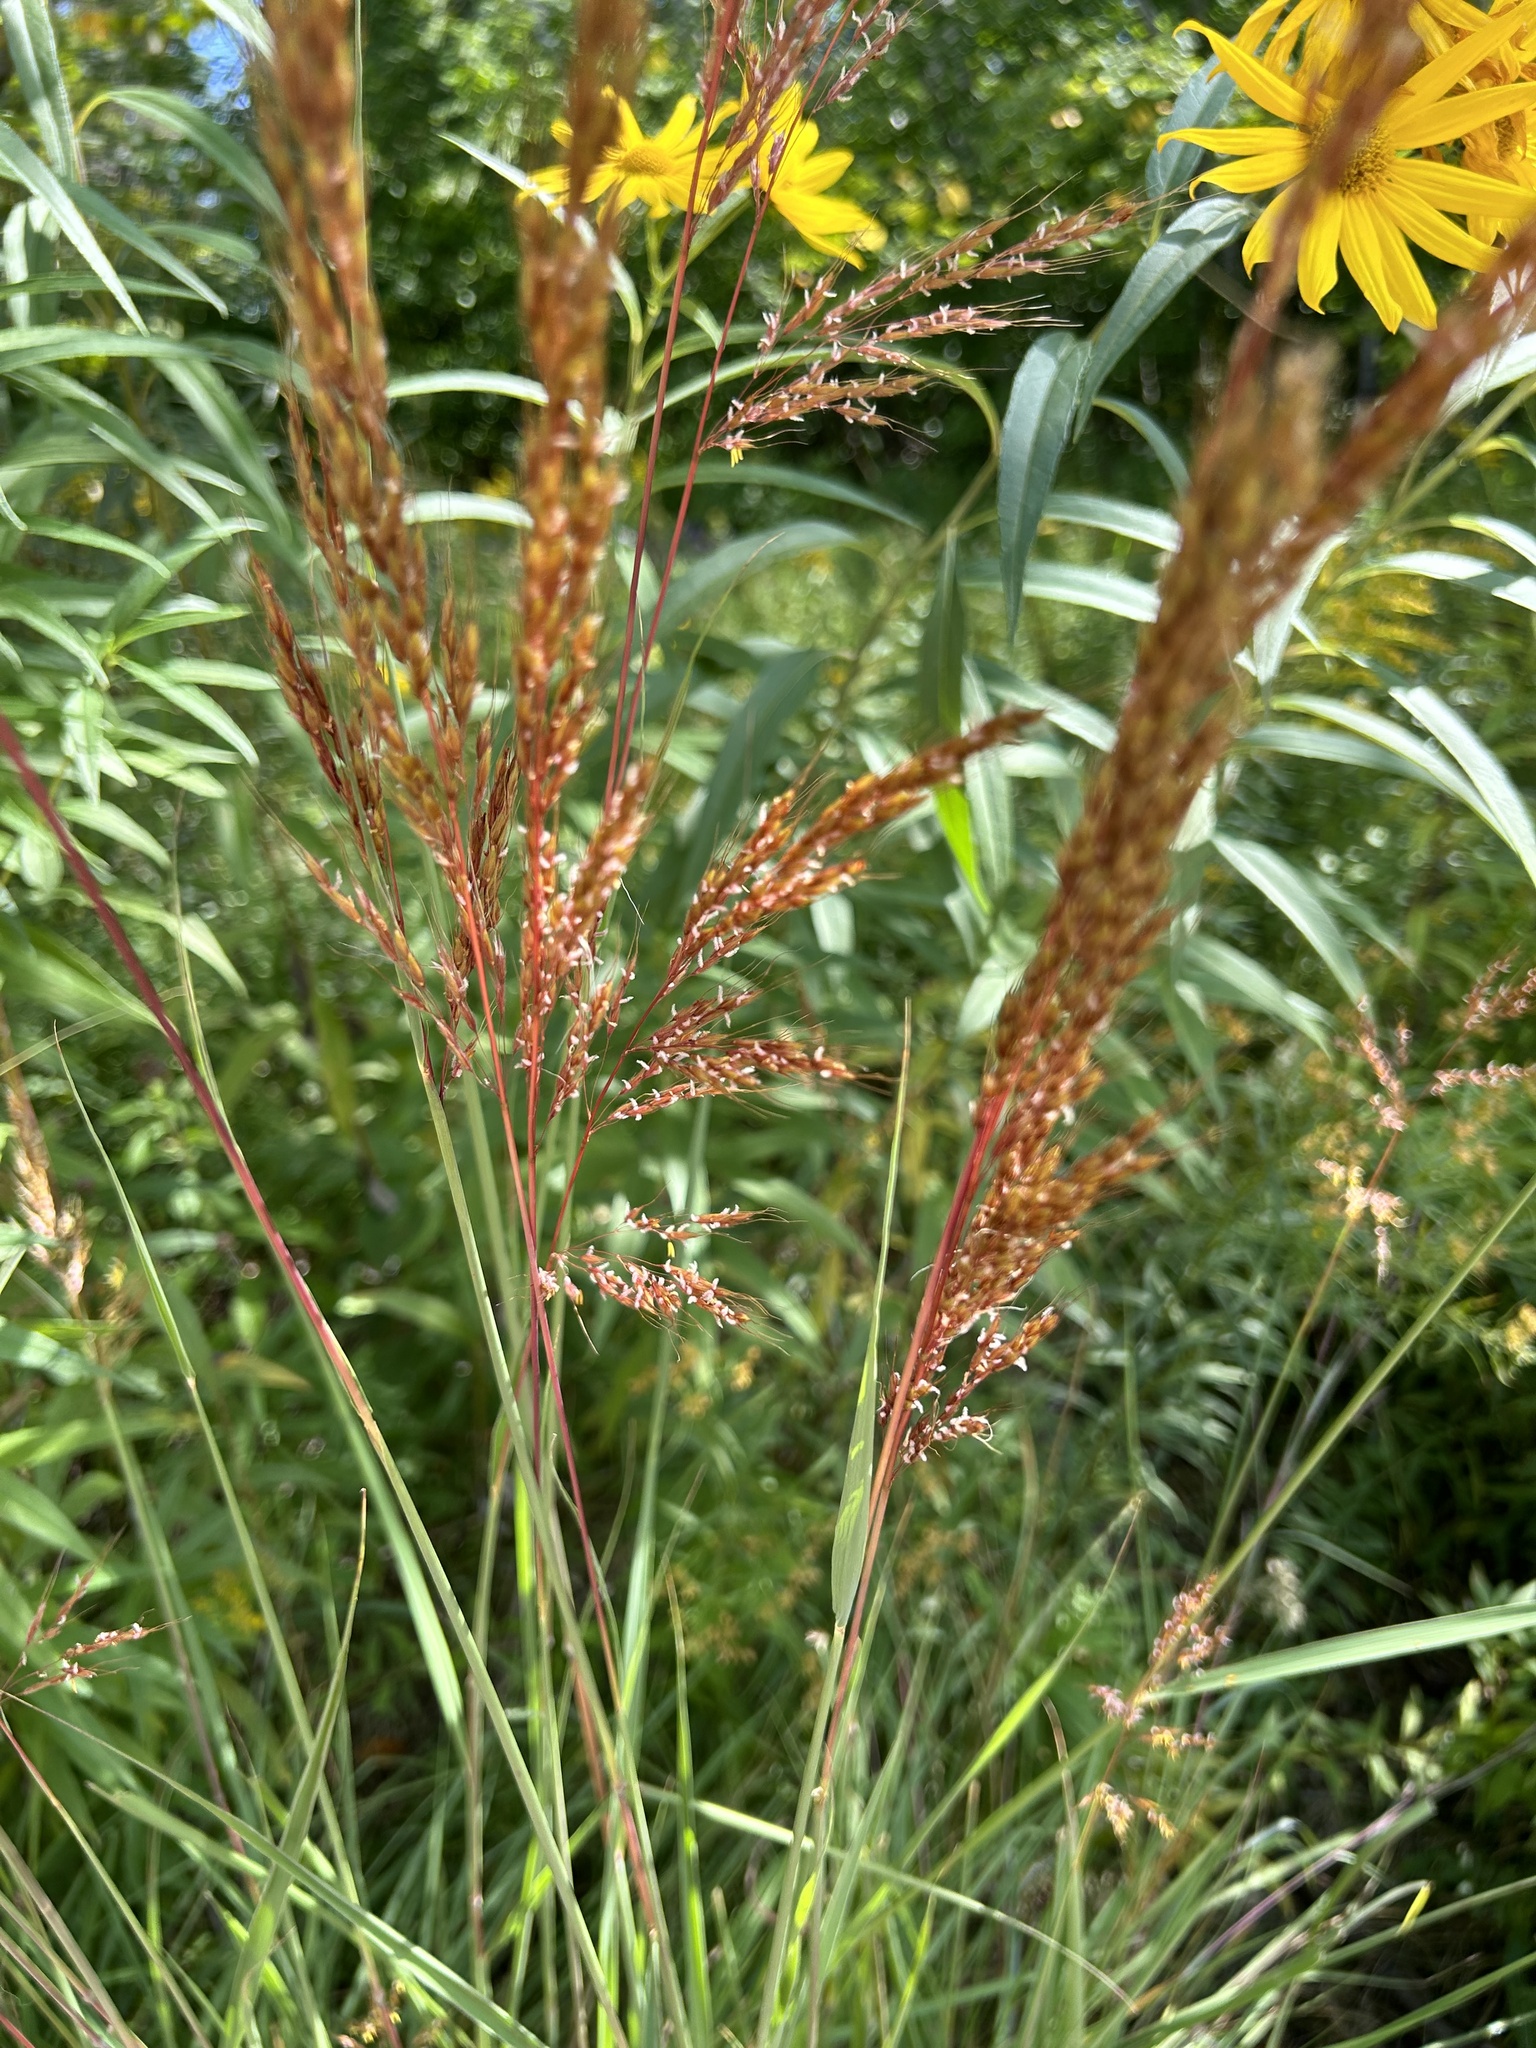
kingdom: Plantae
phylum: Tracheophyta
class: Liliopsida
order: Poales
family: Poaceae
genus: Sorghastrum
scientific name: Sorghastrum nutans
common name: Indian grass
